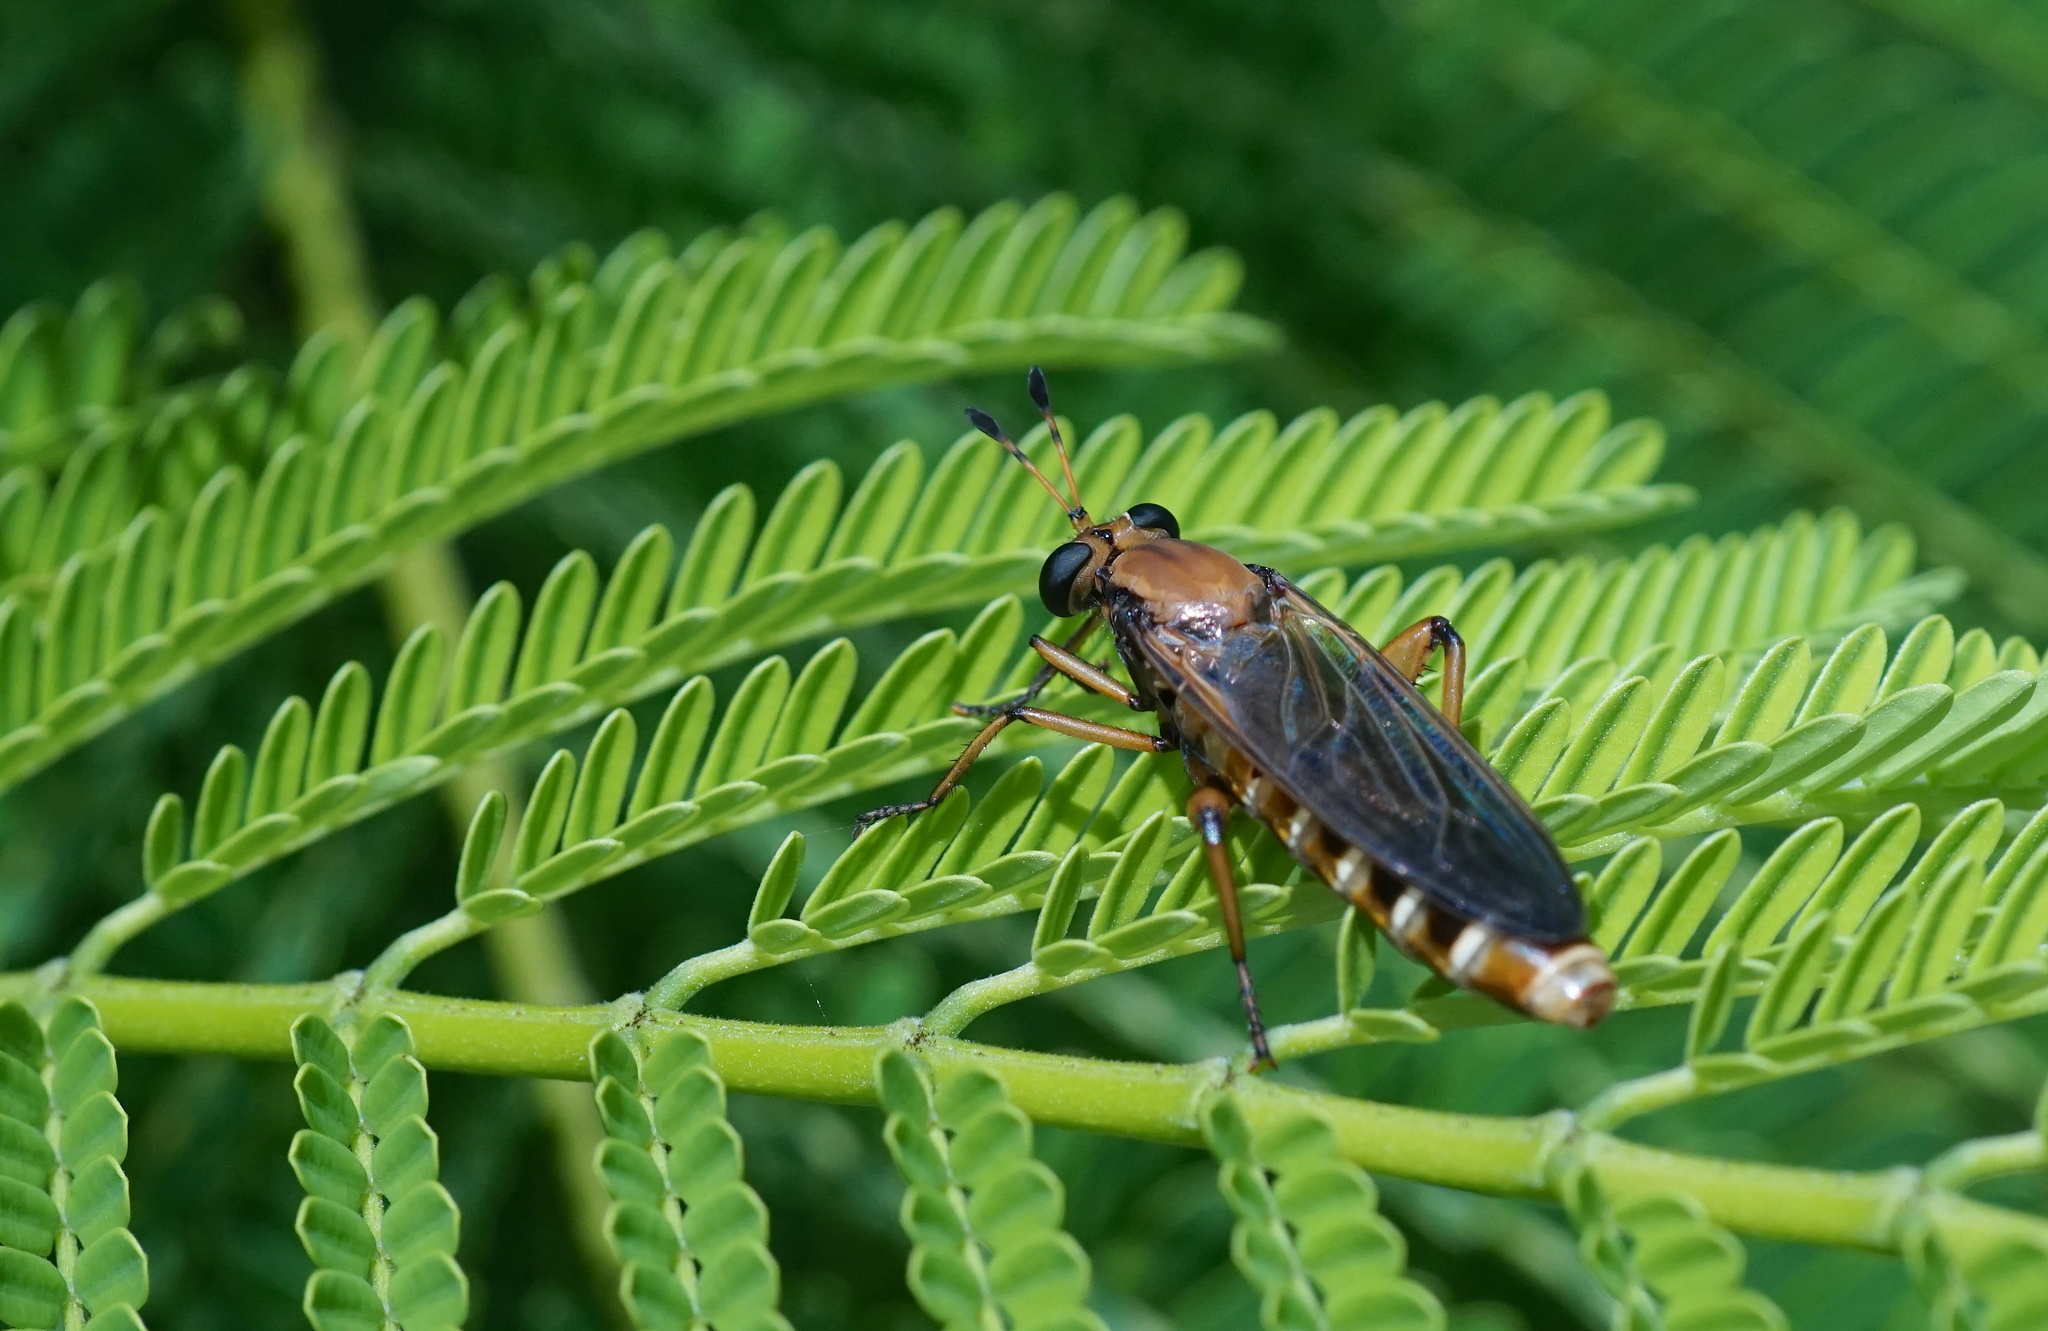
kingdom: Animalia
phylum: Arthropoda
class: Insecta
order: Diptera
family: Mydidae
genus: Mydas
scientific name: Mydas maculiventris
